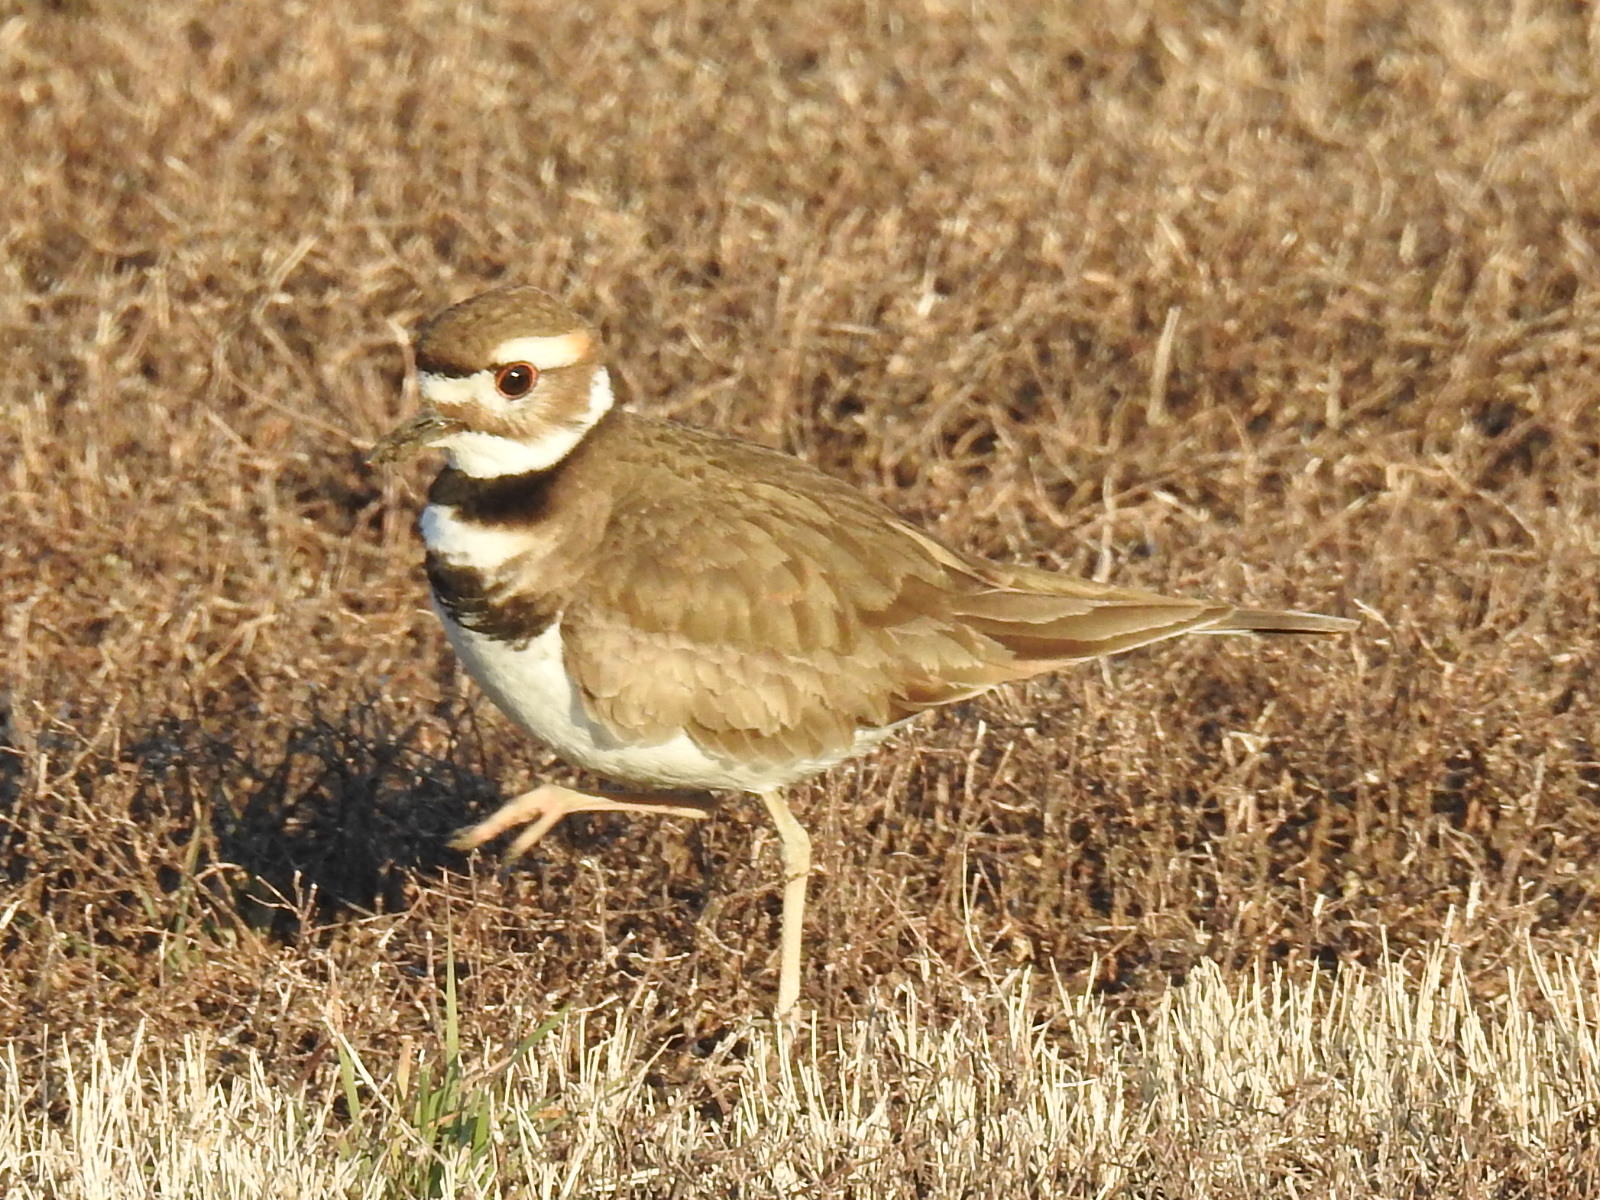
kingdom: Animalia
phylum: Chordata
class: Aves
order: Charadriiformes
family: Charadriidae
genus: Charadrius
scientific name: Charadrius vociferus
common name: Killdeer
